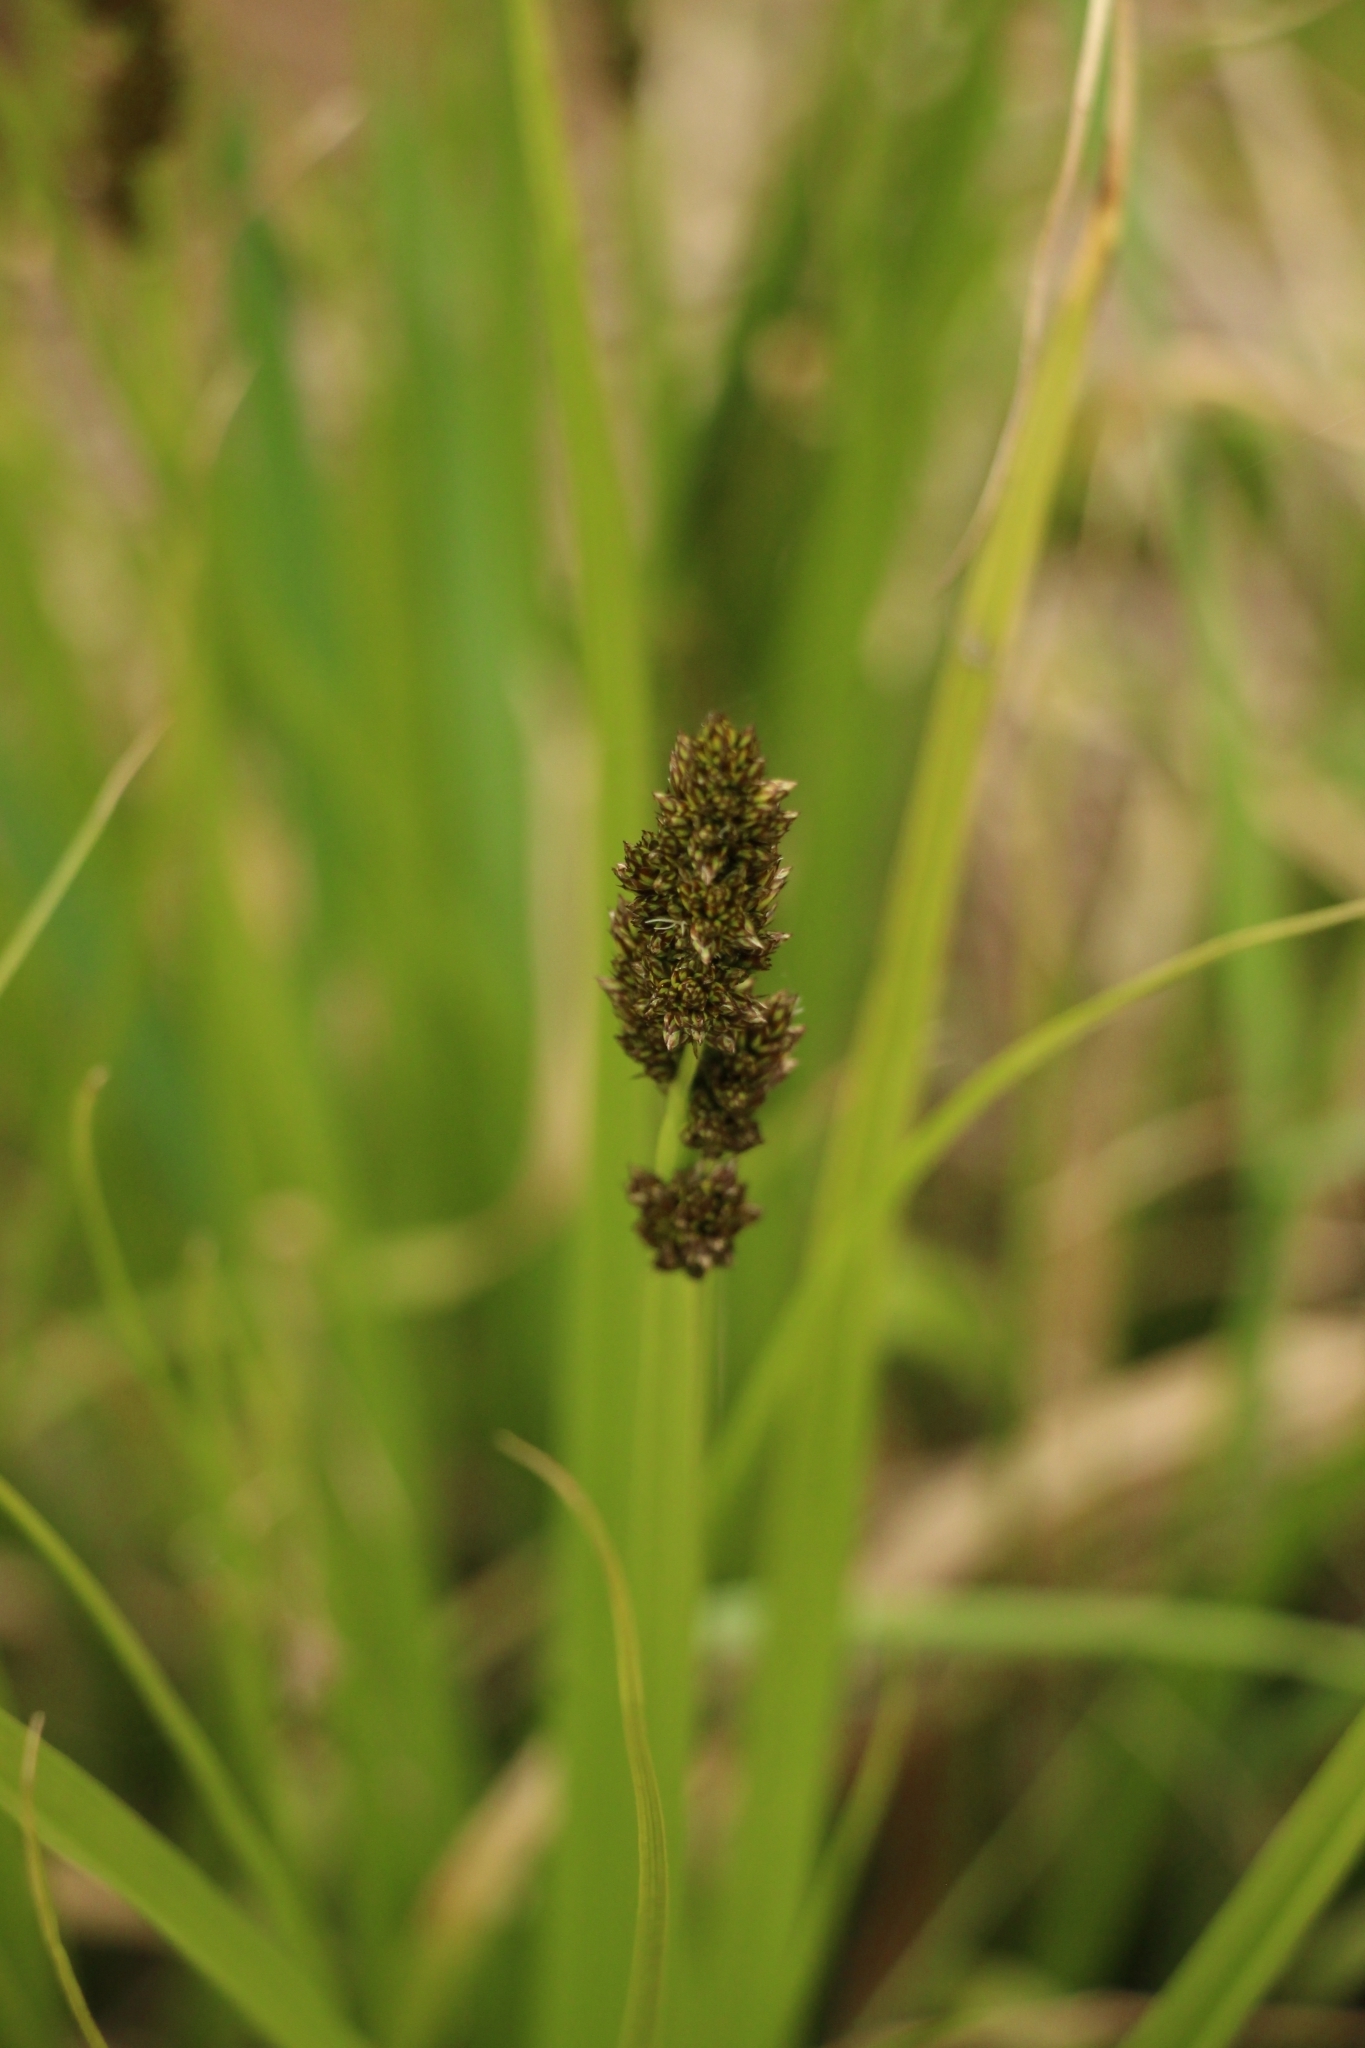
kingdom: Plantae
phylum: Tracheophyta
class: Liliopsida
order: Poales
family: Cyperaceae
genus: Carex
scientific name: Carex vulpina
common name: True fox-sedge
